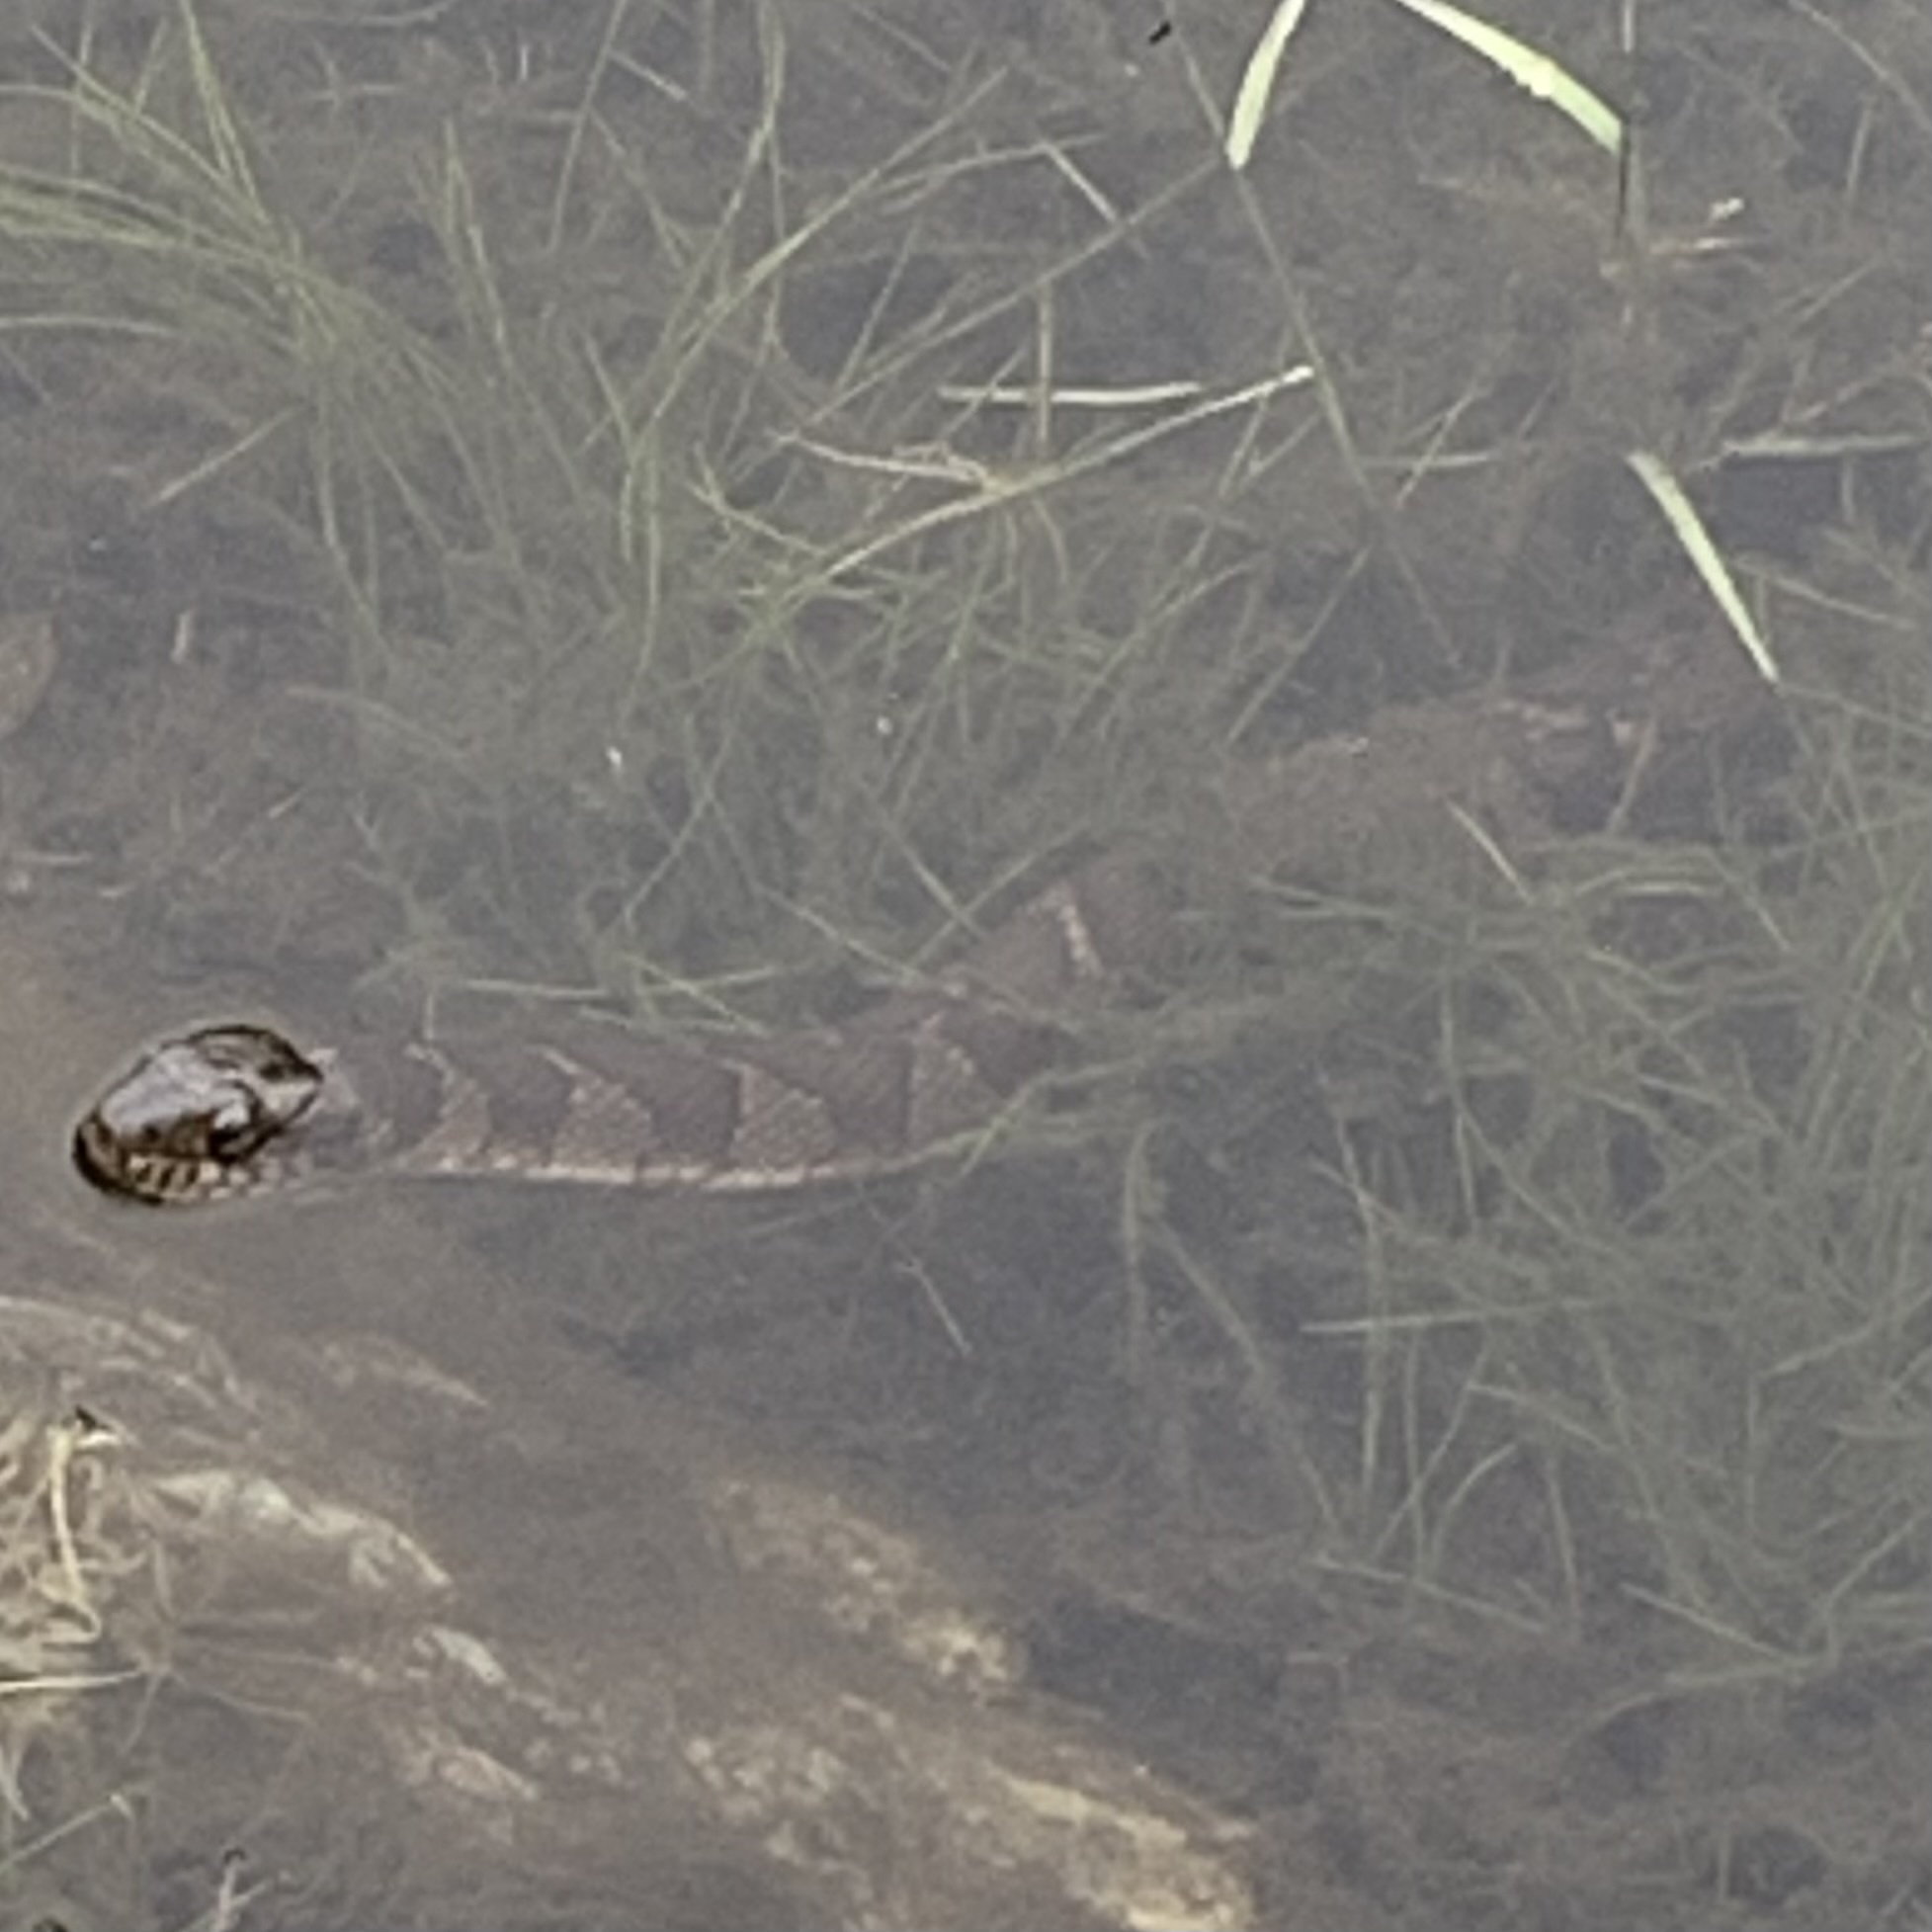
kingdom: Animalia
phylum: Chordata
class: Squamata
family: Colubridae
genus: Nerodia
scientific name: Nerodia sipedon
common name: Northern water snake
